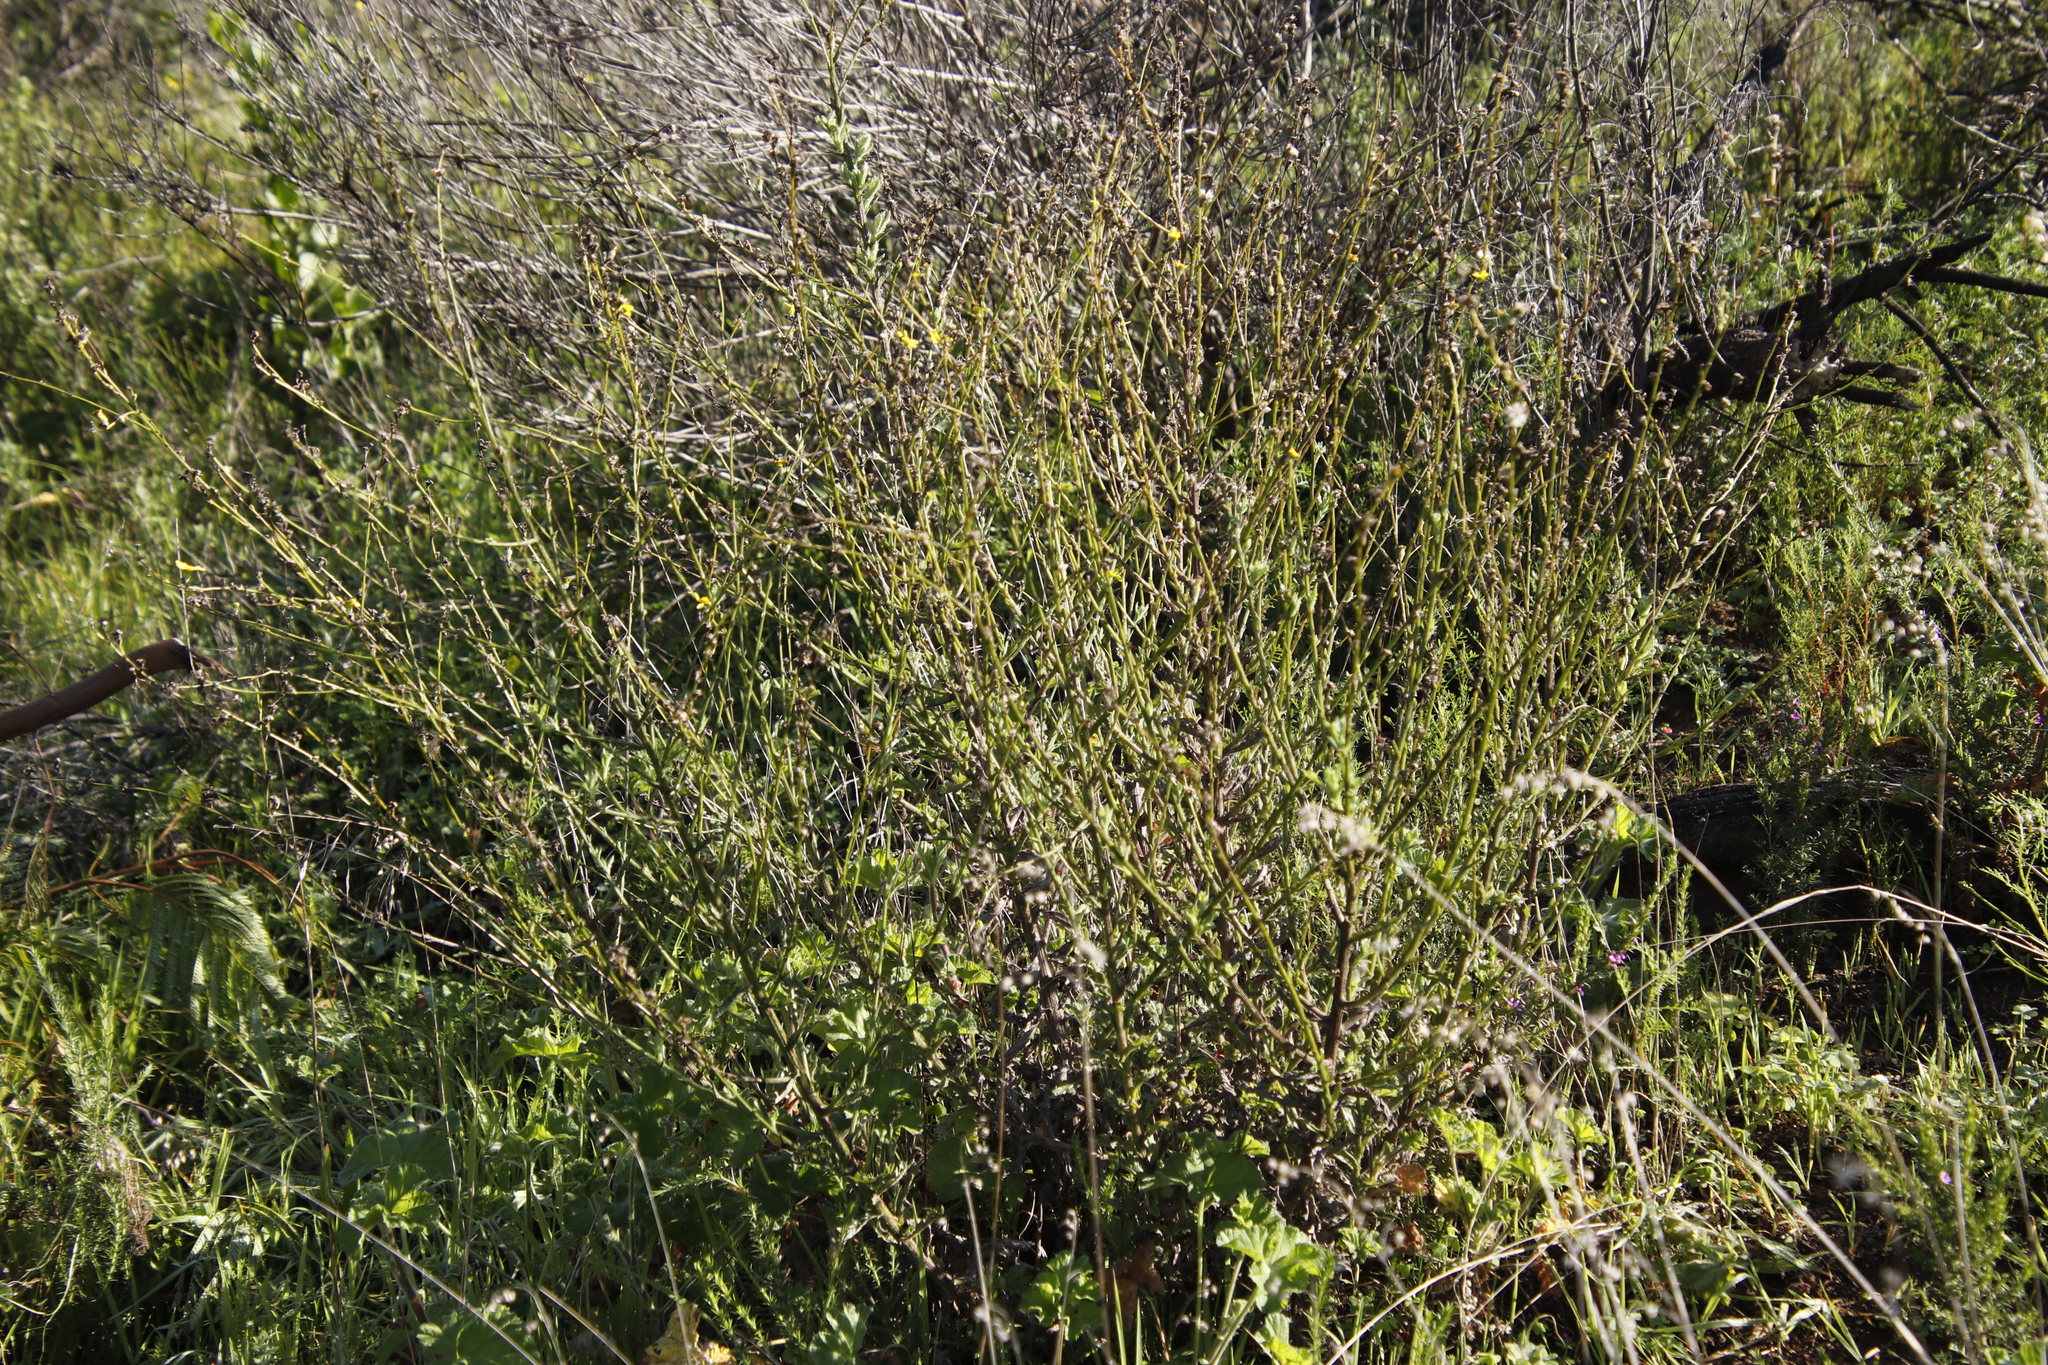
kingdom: Plantae
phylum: Tracheophyta
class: Magnoliopsida
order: Asterales
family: Asteraceae
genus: Senecio
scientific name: Senecio pubigerus
